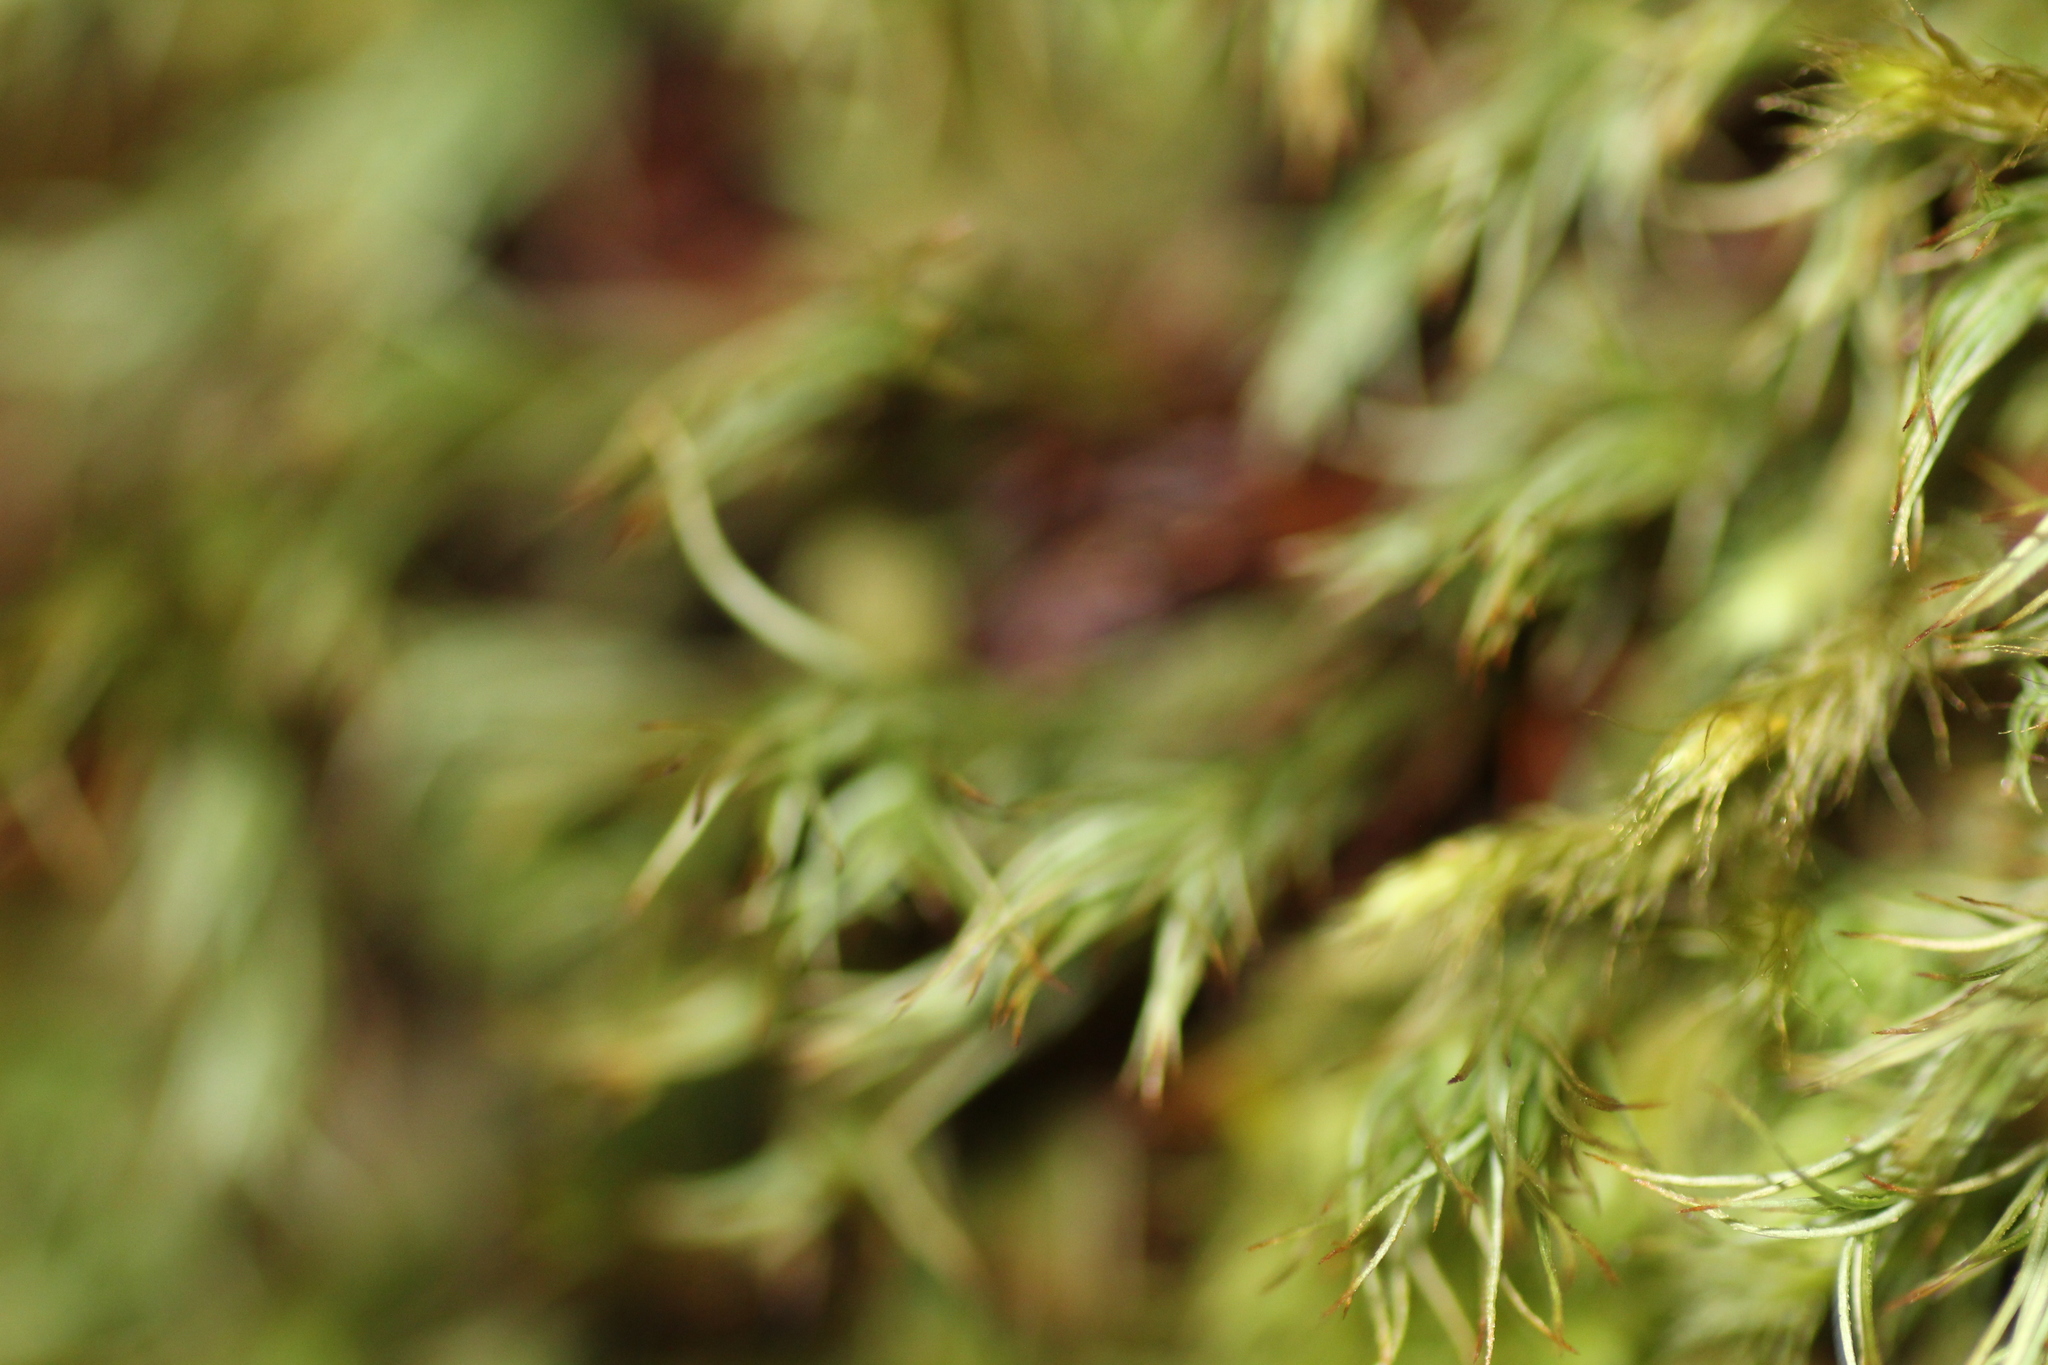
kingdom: Plantae
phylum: Bryophyta
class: Polytrichopsida
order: Polytrichales
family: Polytrichaceae
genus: Polytrichastrum
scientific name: Polytrichastrum alpinum
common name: Alpine haircap
